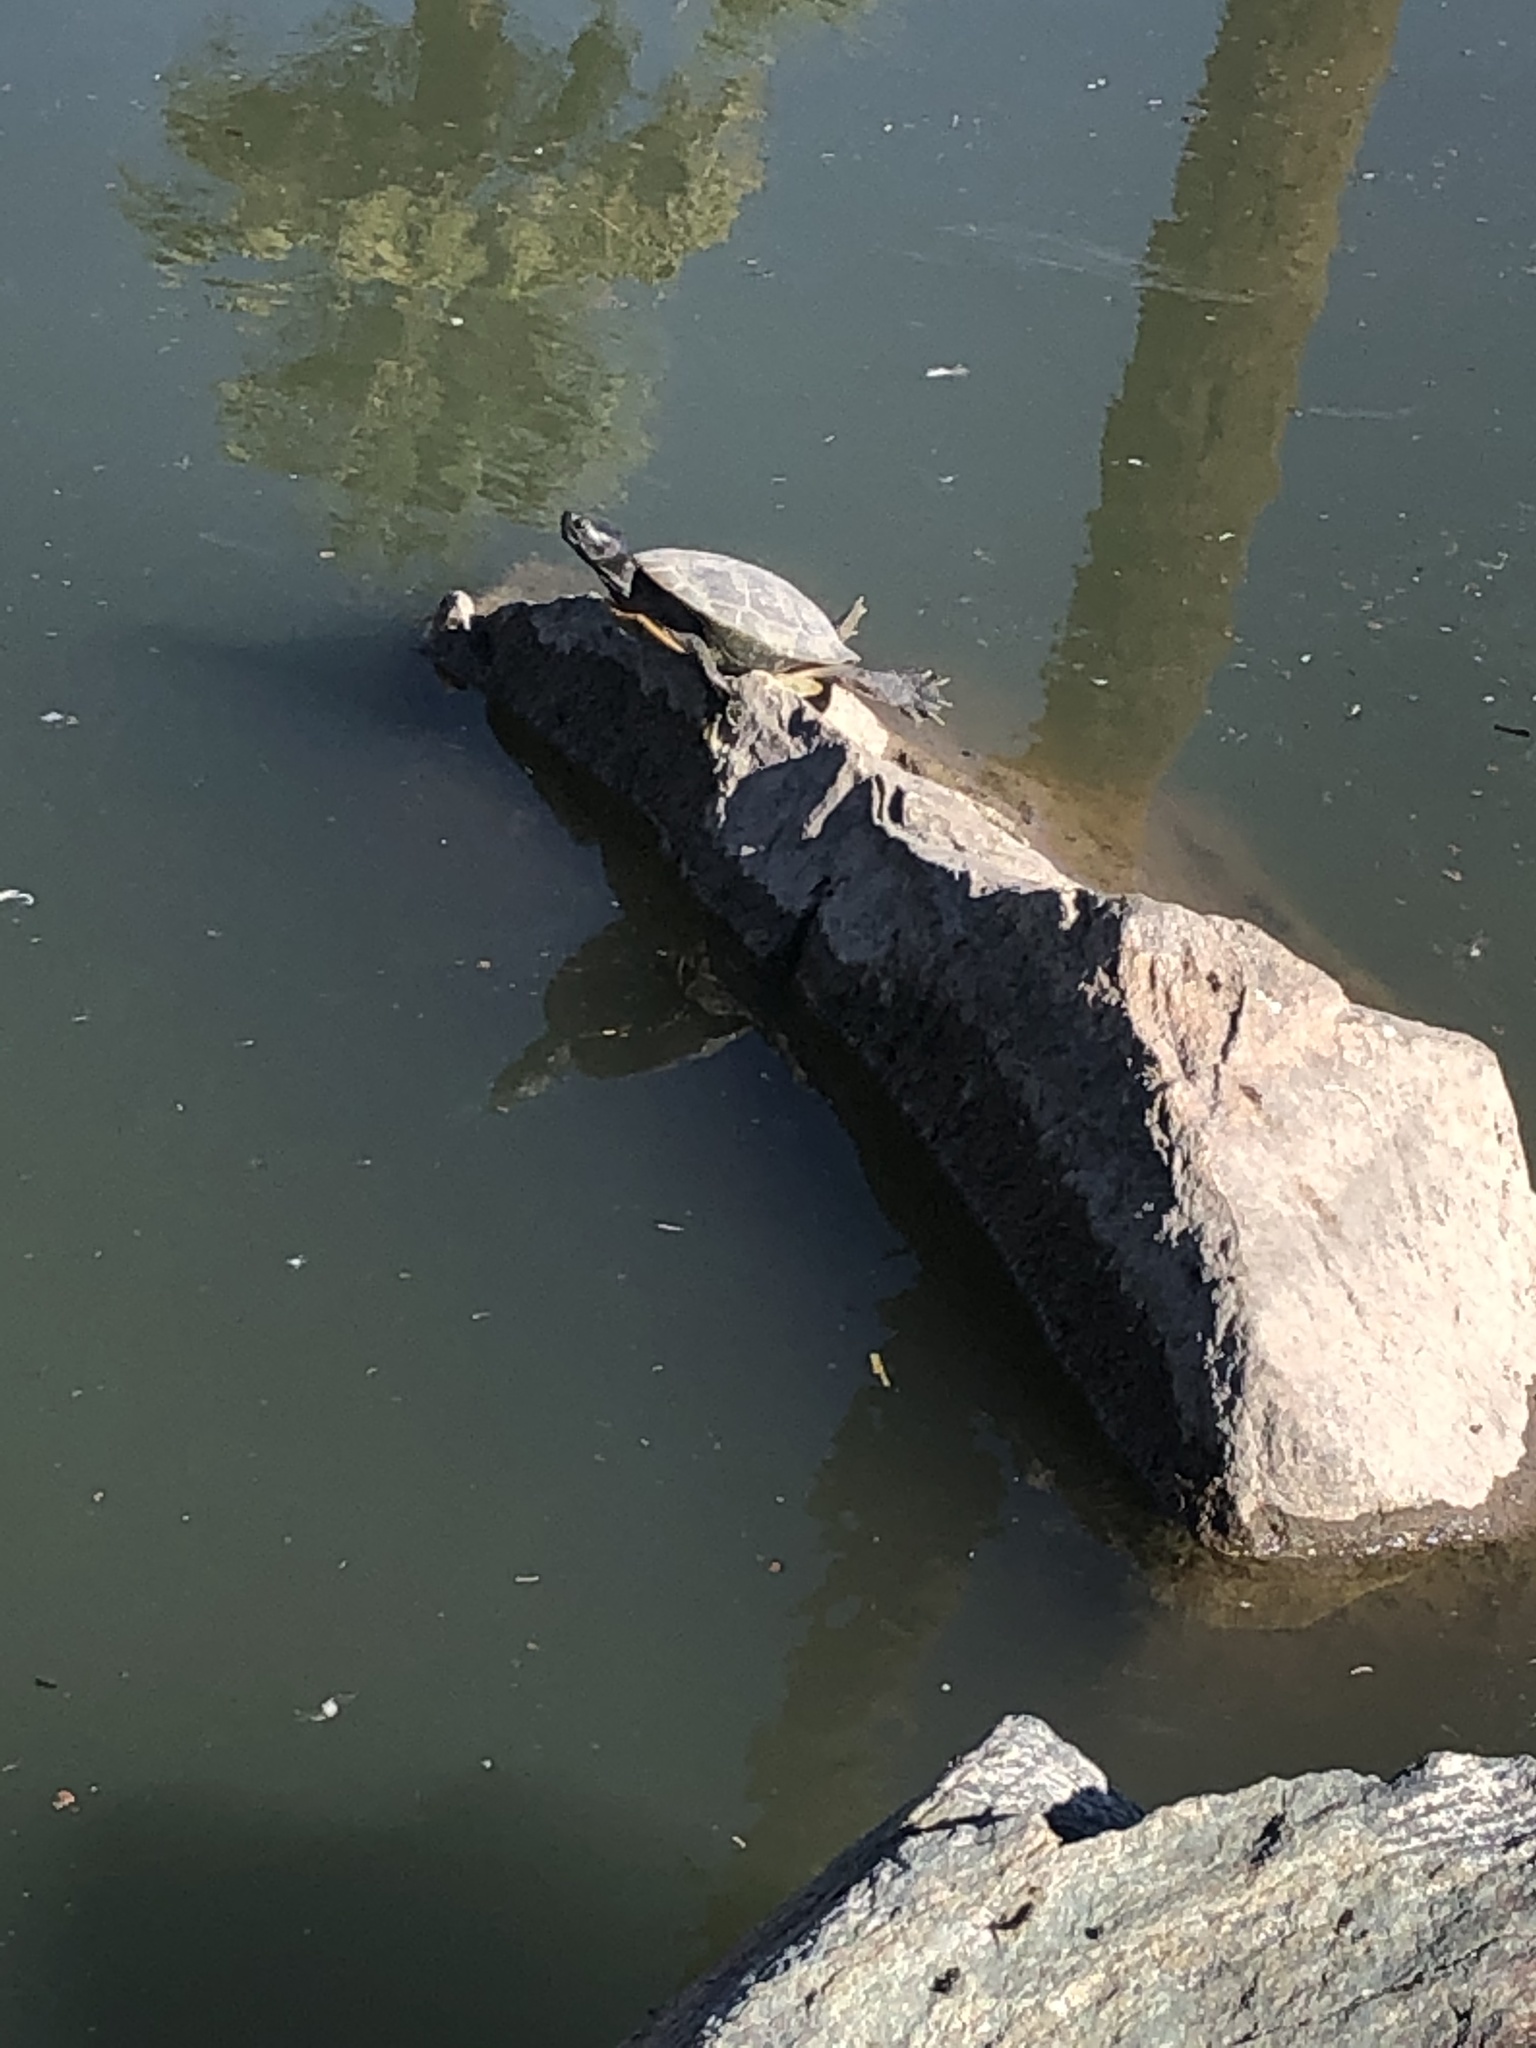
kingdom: Animalia
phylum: Chordata
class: Testudines
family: Emydidae
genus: Trachemys
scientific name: Trachemys scripta
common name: Slider
